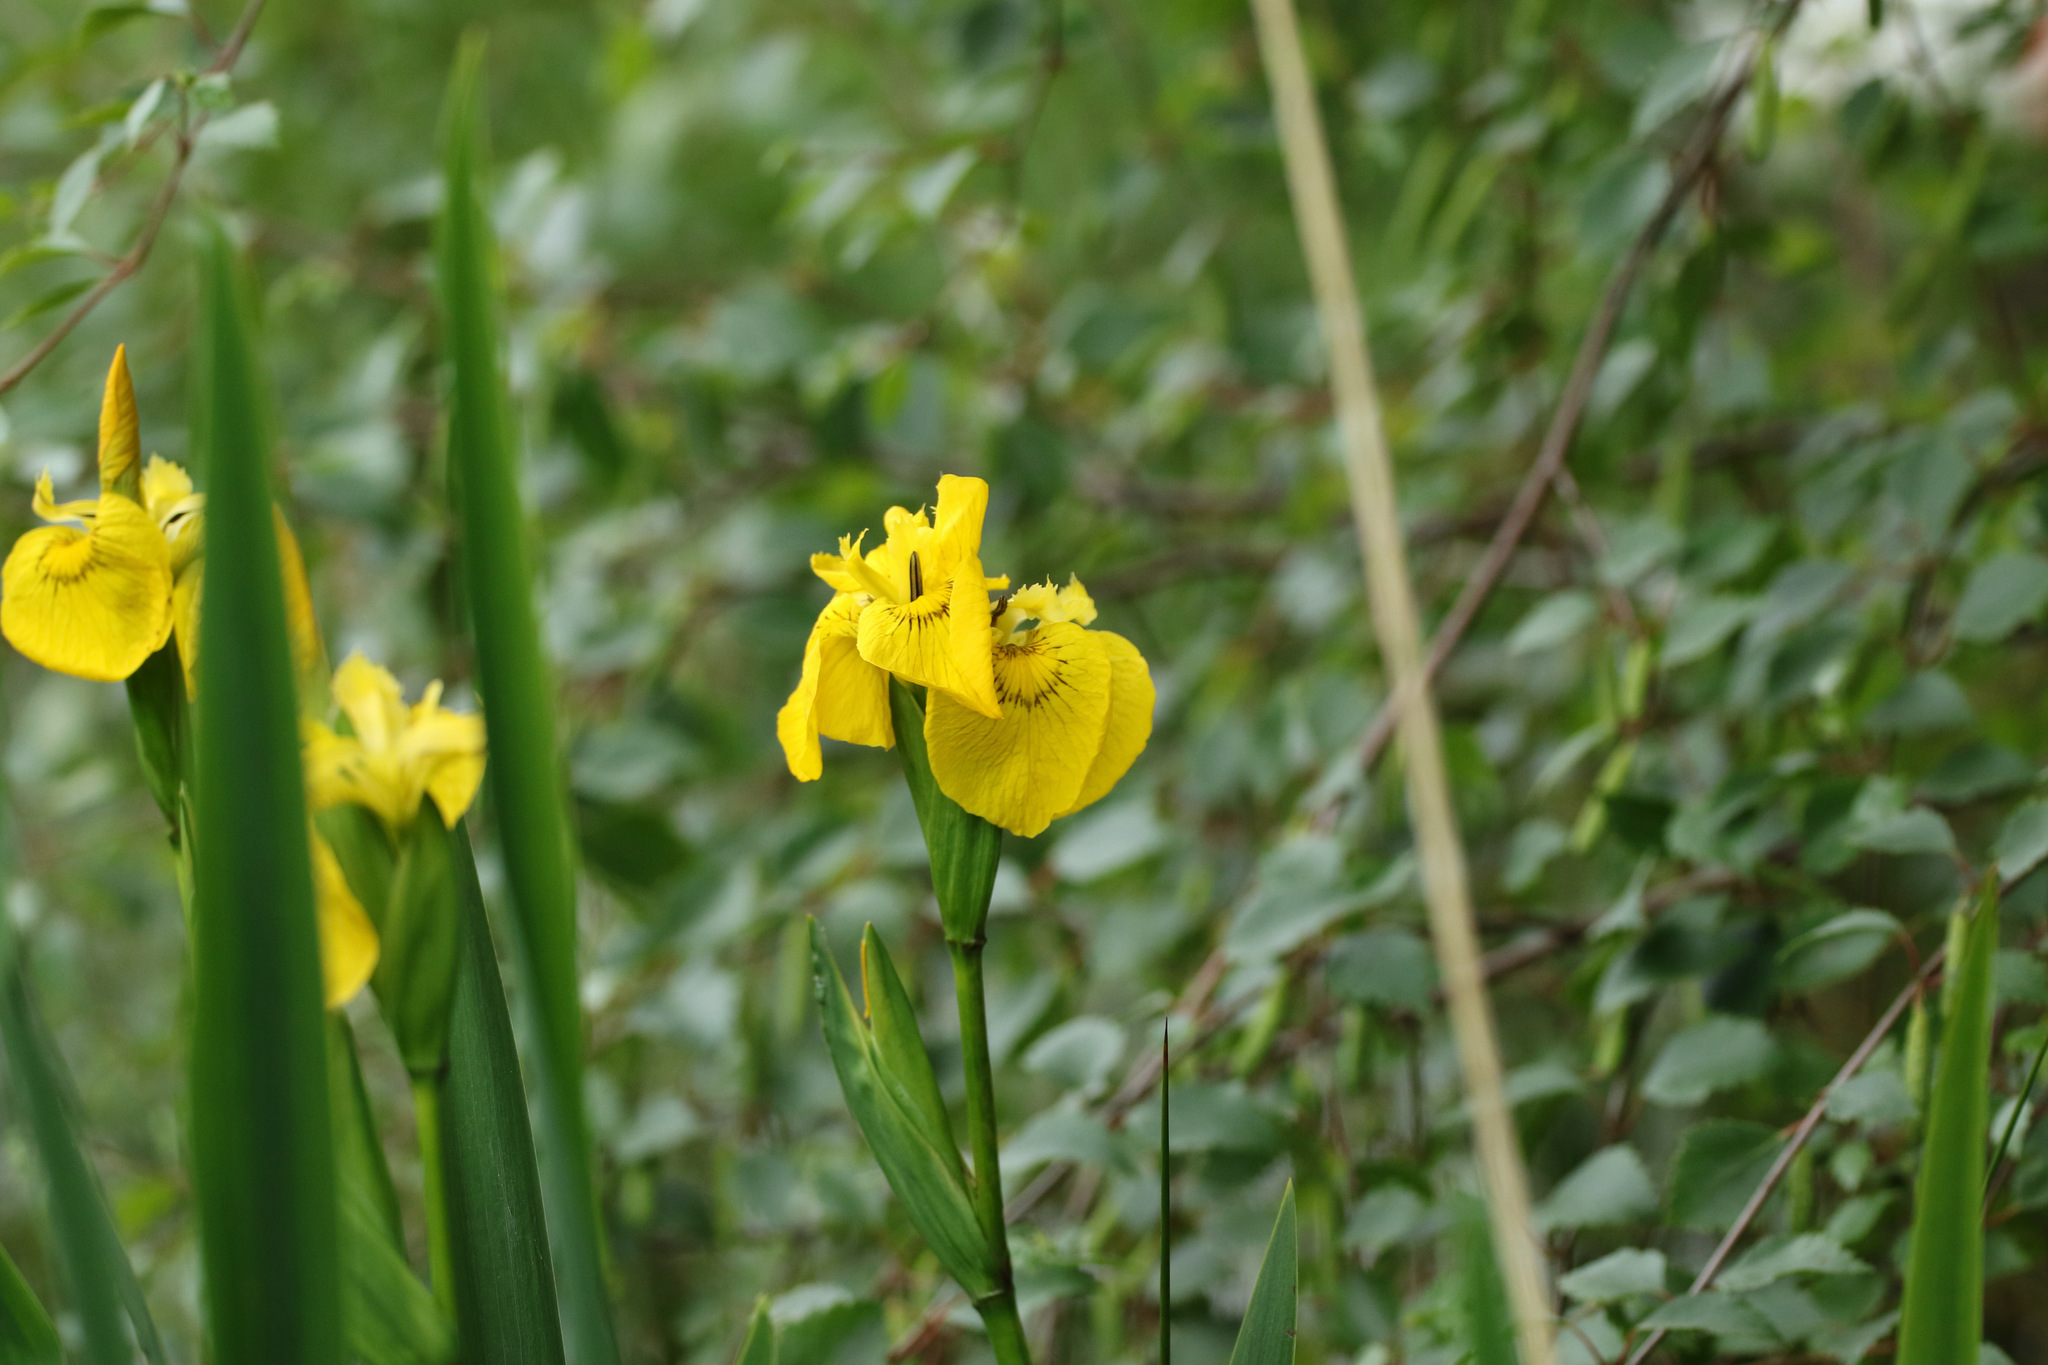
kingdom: Plantae
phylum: Tracheophyta
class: Liliopsida
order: Asparagales
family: Iridaceae
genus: Iris
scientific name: Iris pseudacorus
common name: Yellow flag
